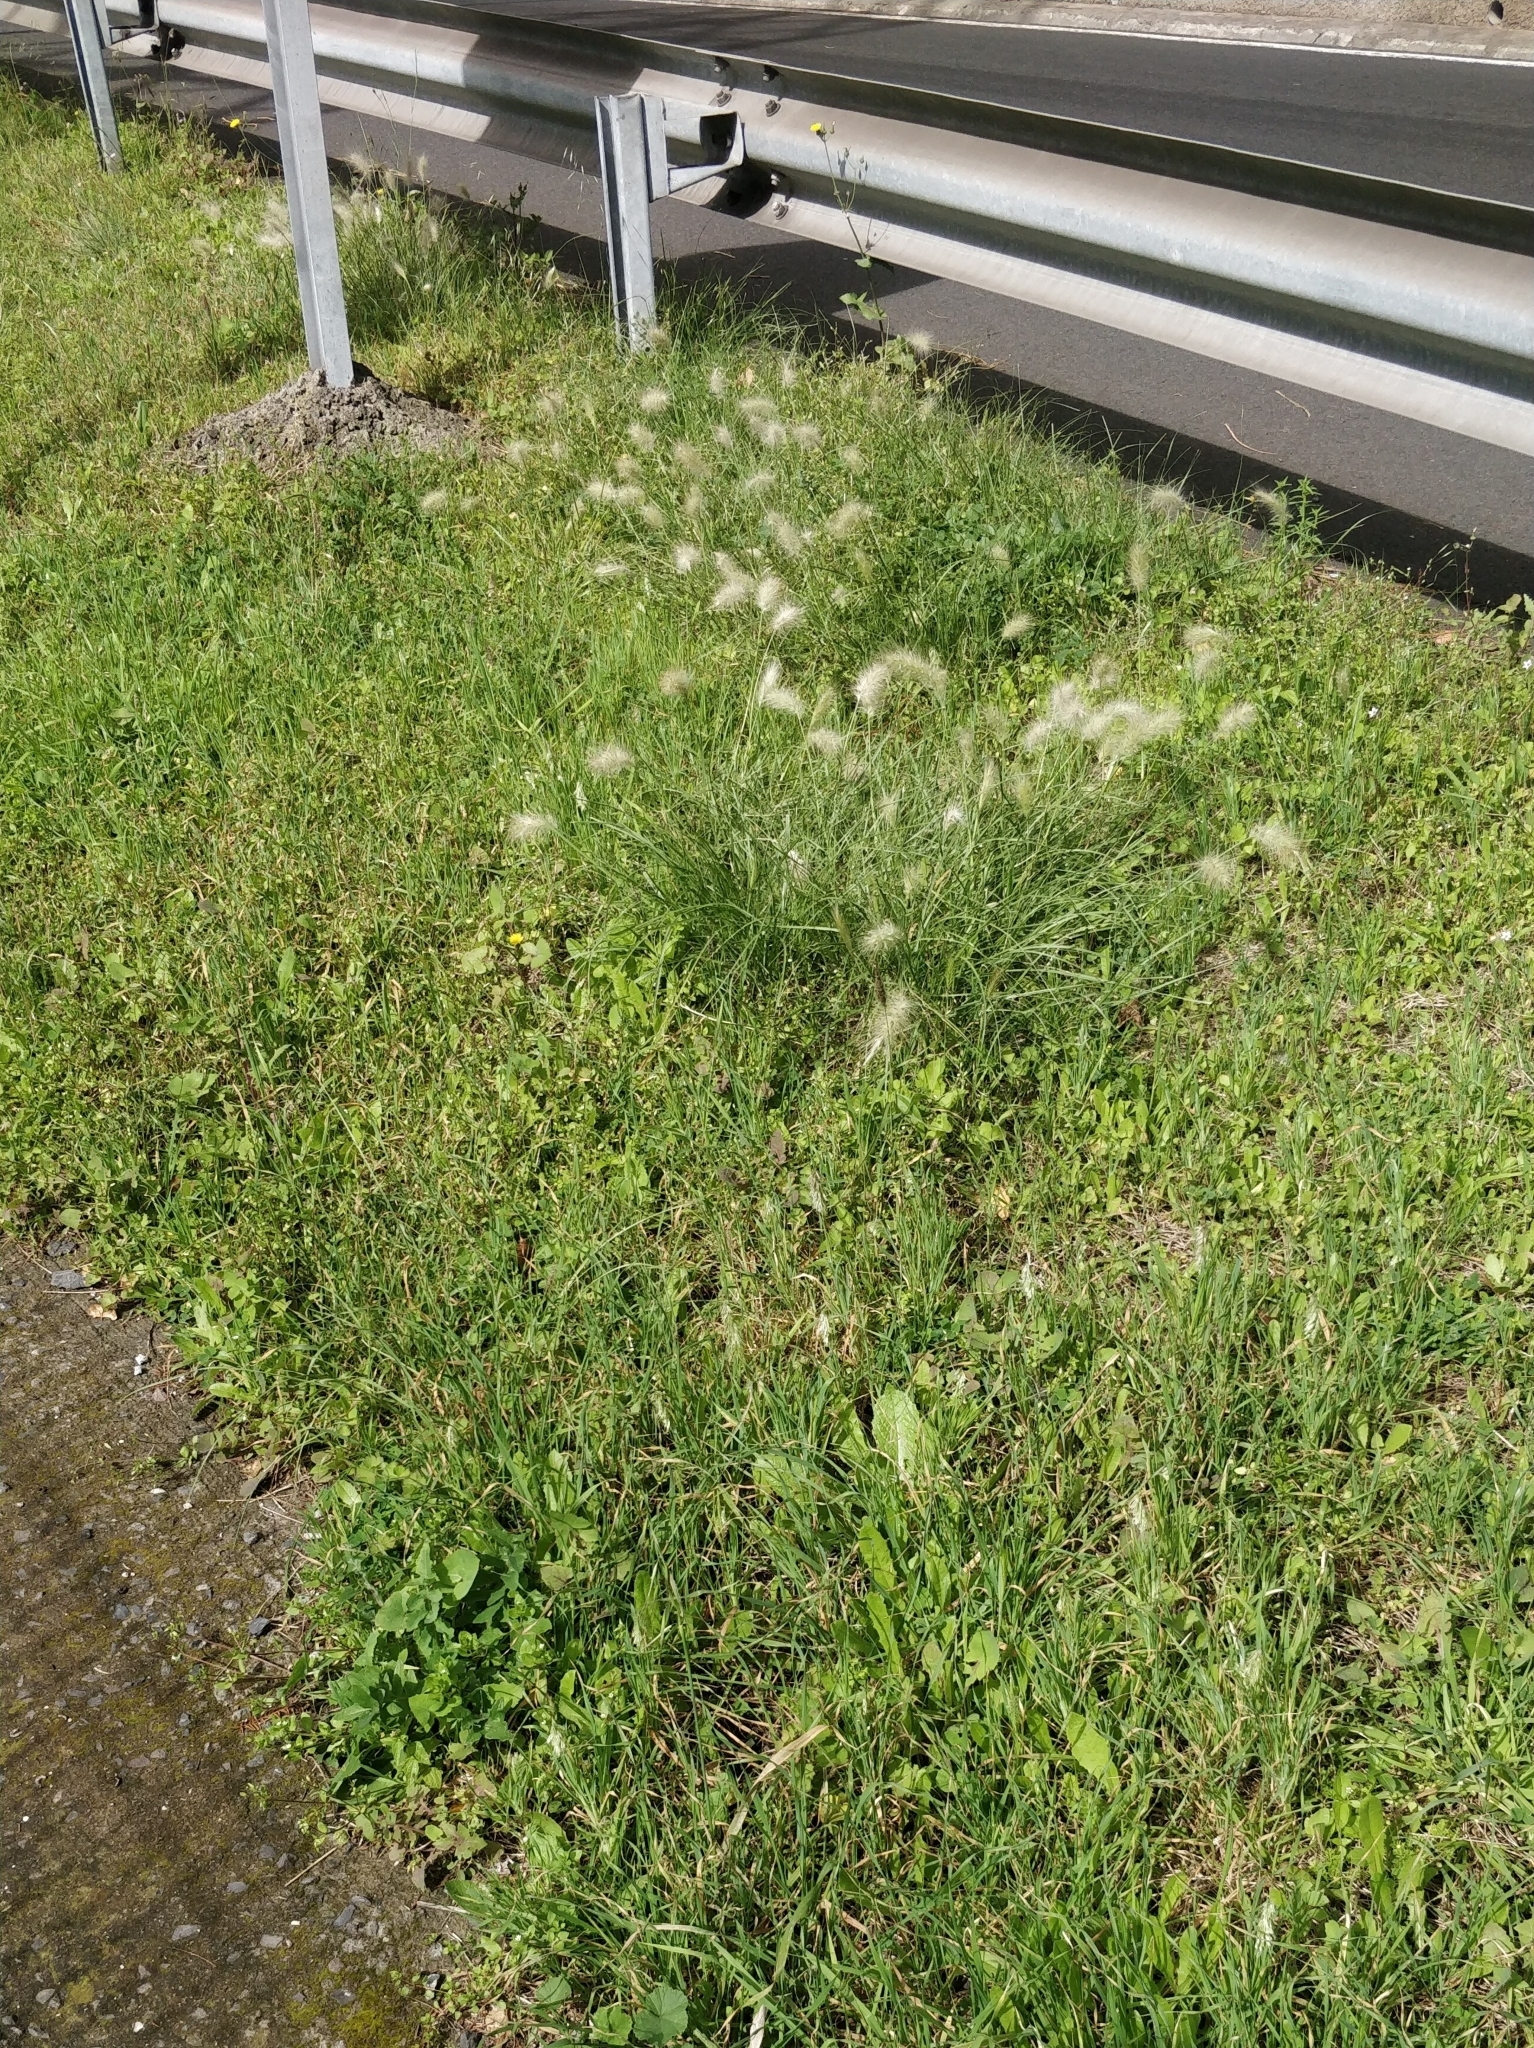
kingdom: Plantae
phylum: Tracheophyta
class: Liliopsida
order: Poales
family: Poaceae
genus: Cenchrus
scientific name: Cenchrus longisetus
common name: Feathertop
